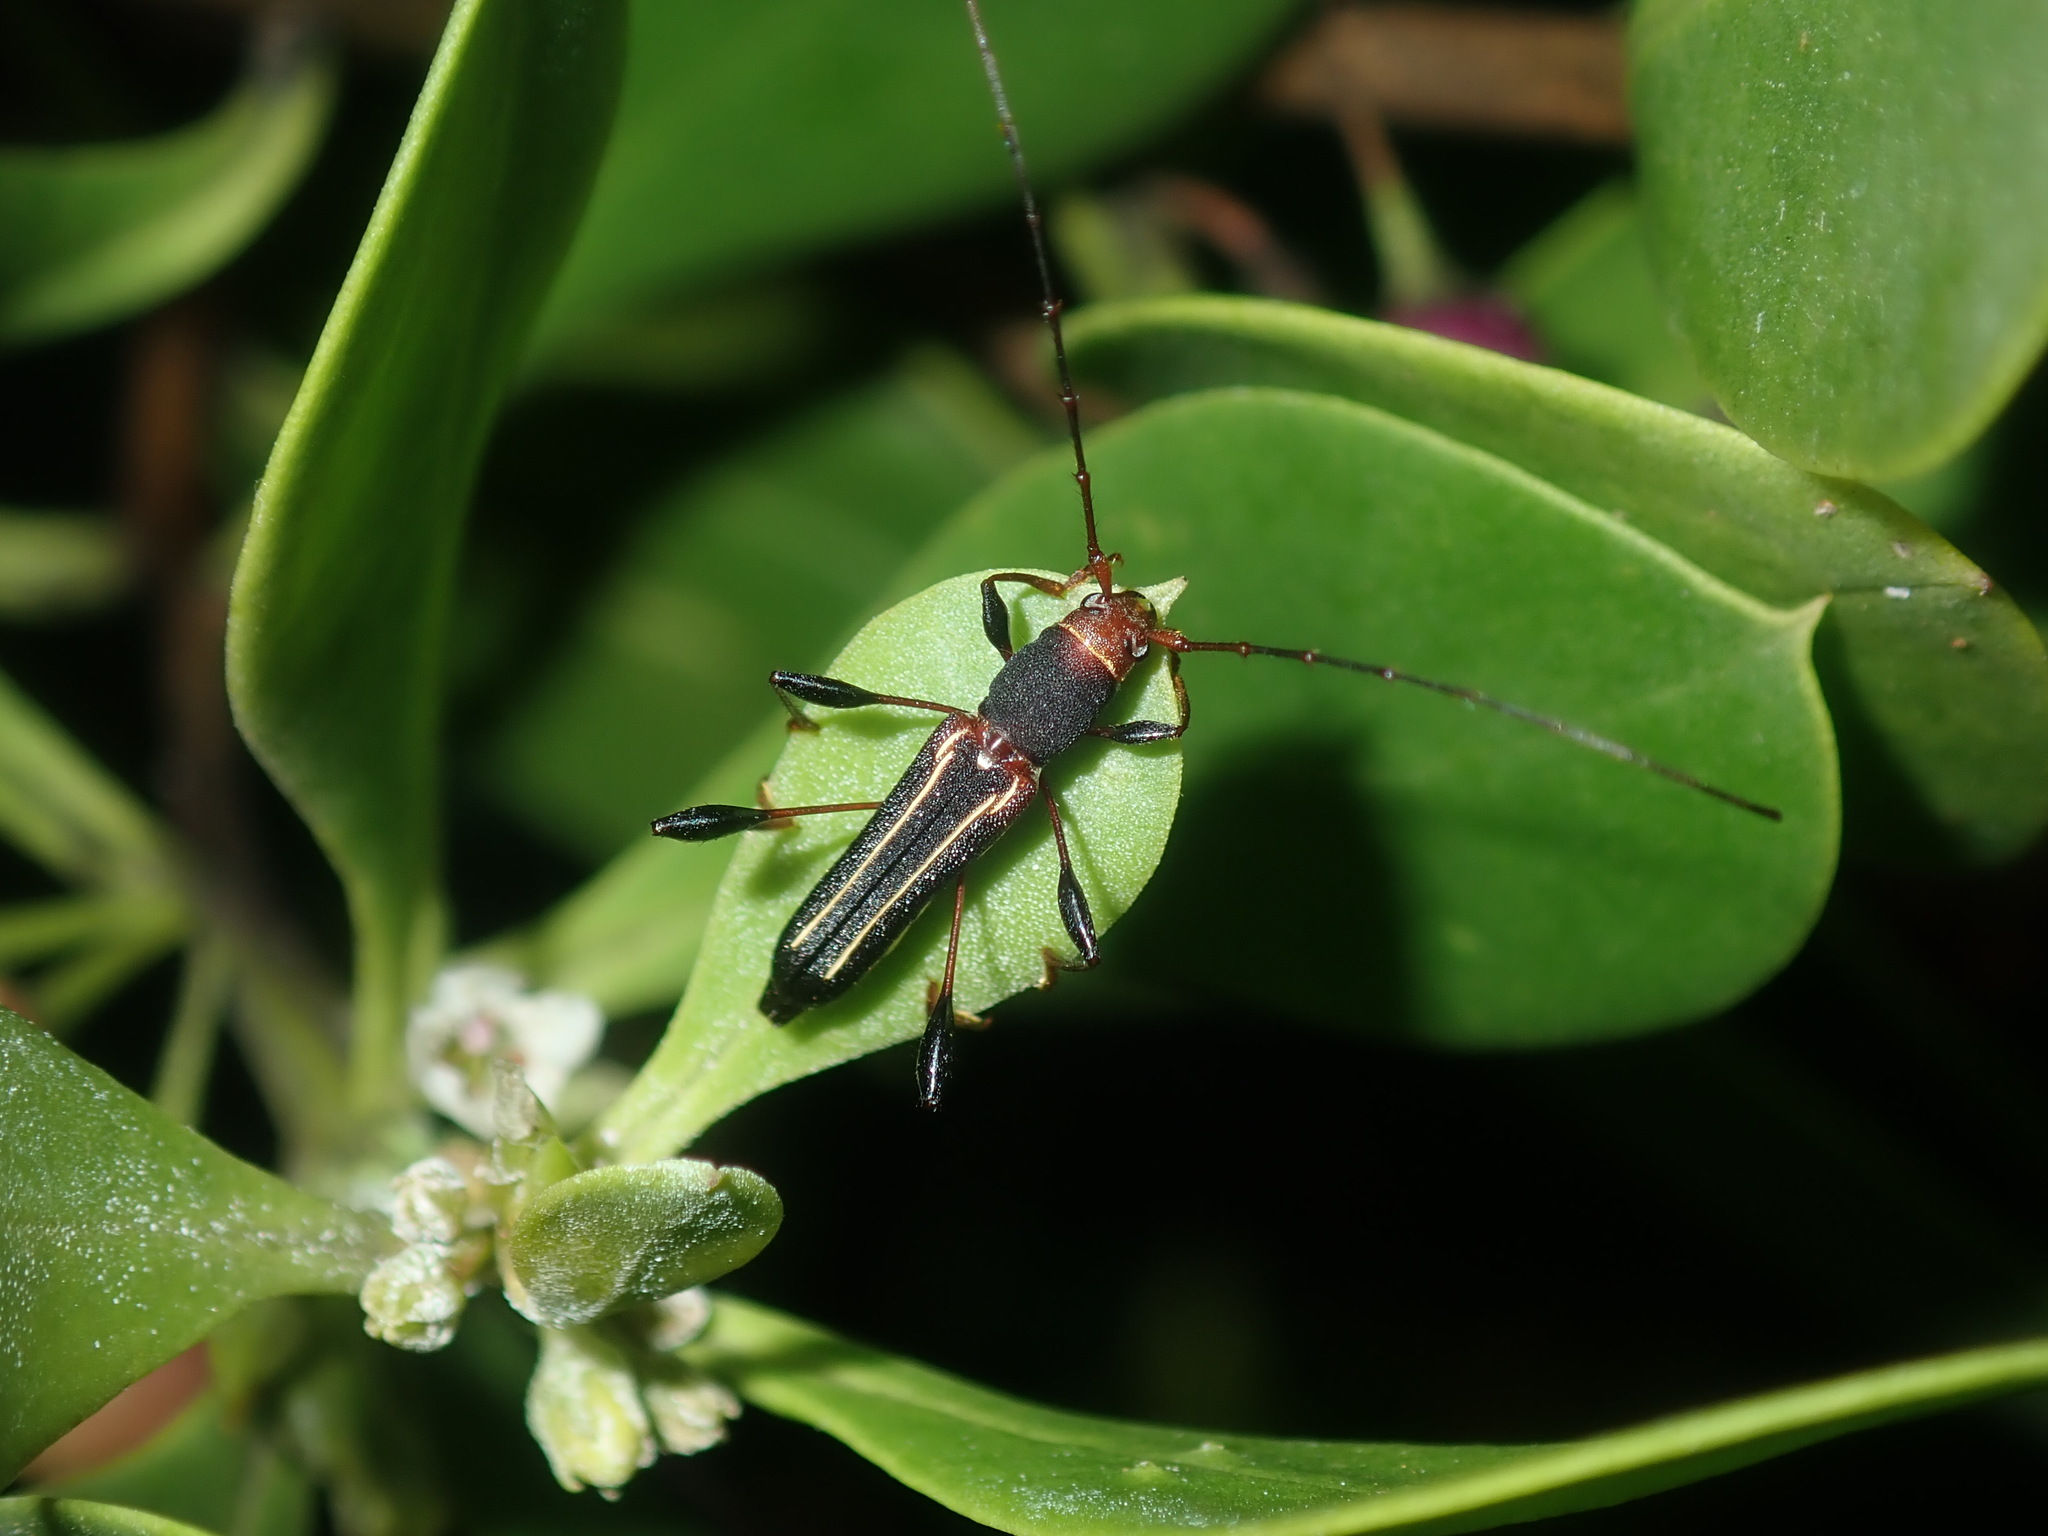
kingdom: Animalia
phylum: Arthropoda
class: Insecta
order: Coleoptera
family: Cerambycidae
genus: Amphirhoe
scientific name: Amphirhoe sloanei
